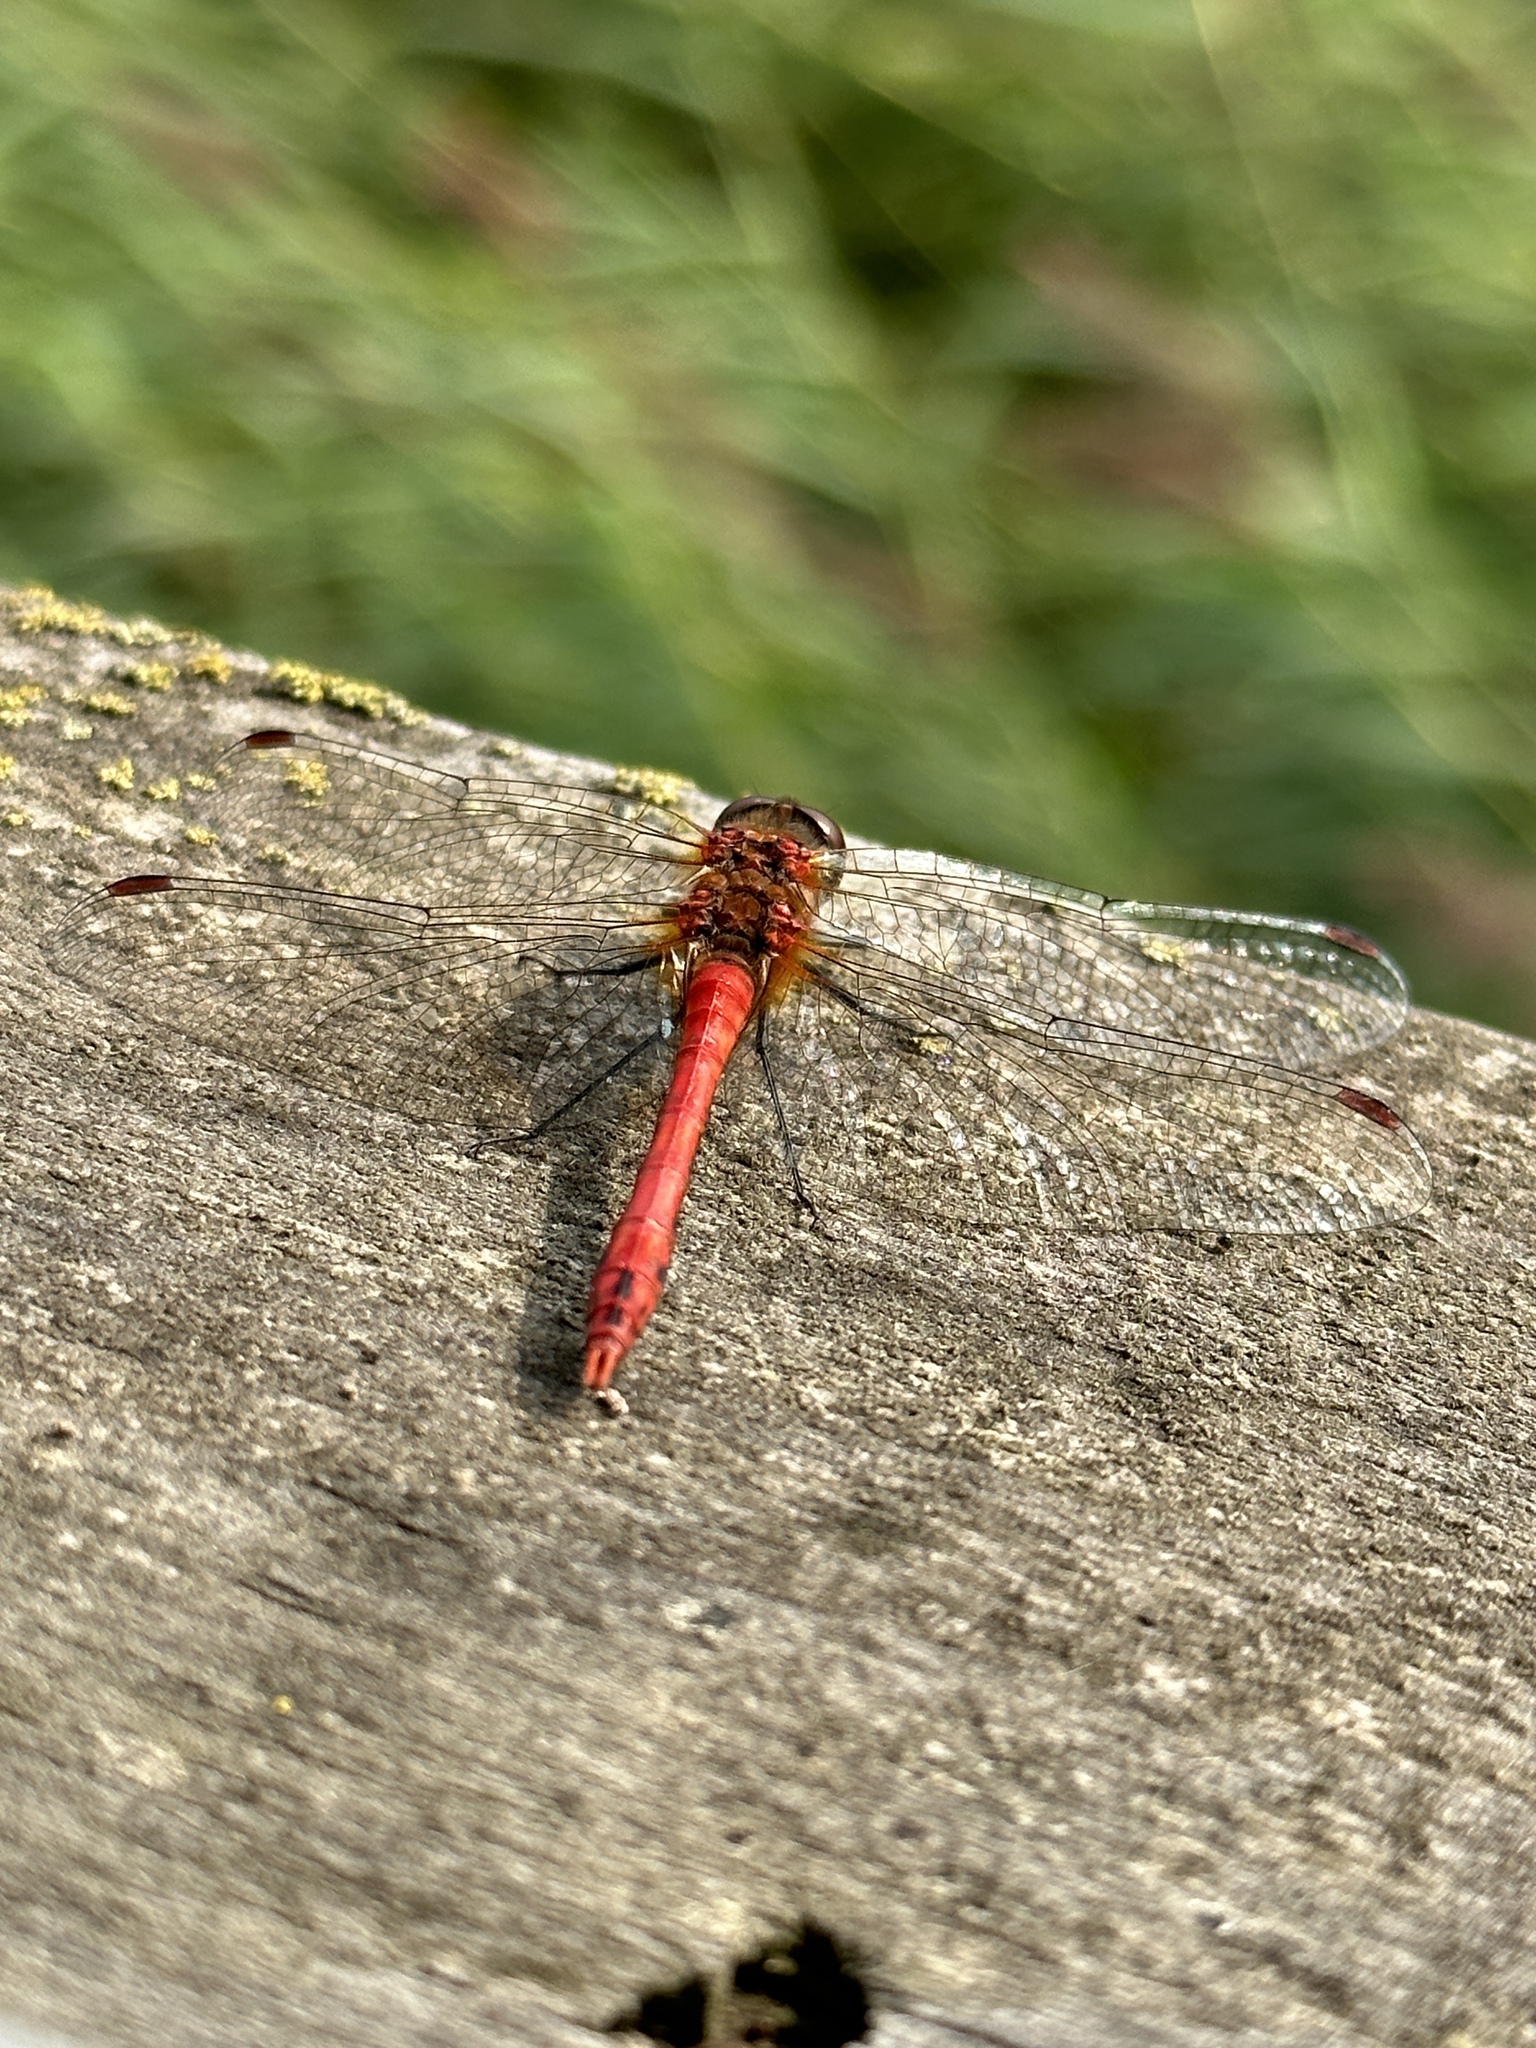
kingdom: Animalia
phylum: Arthropoda
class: Insecta
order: Odonata
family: Libellulidae
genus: Sympetrum
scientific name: Sympetrum sanguineum
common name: Ruddy darter
